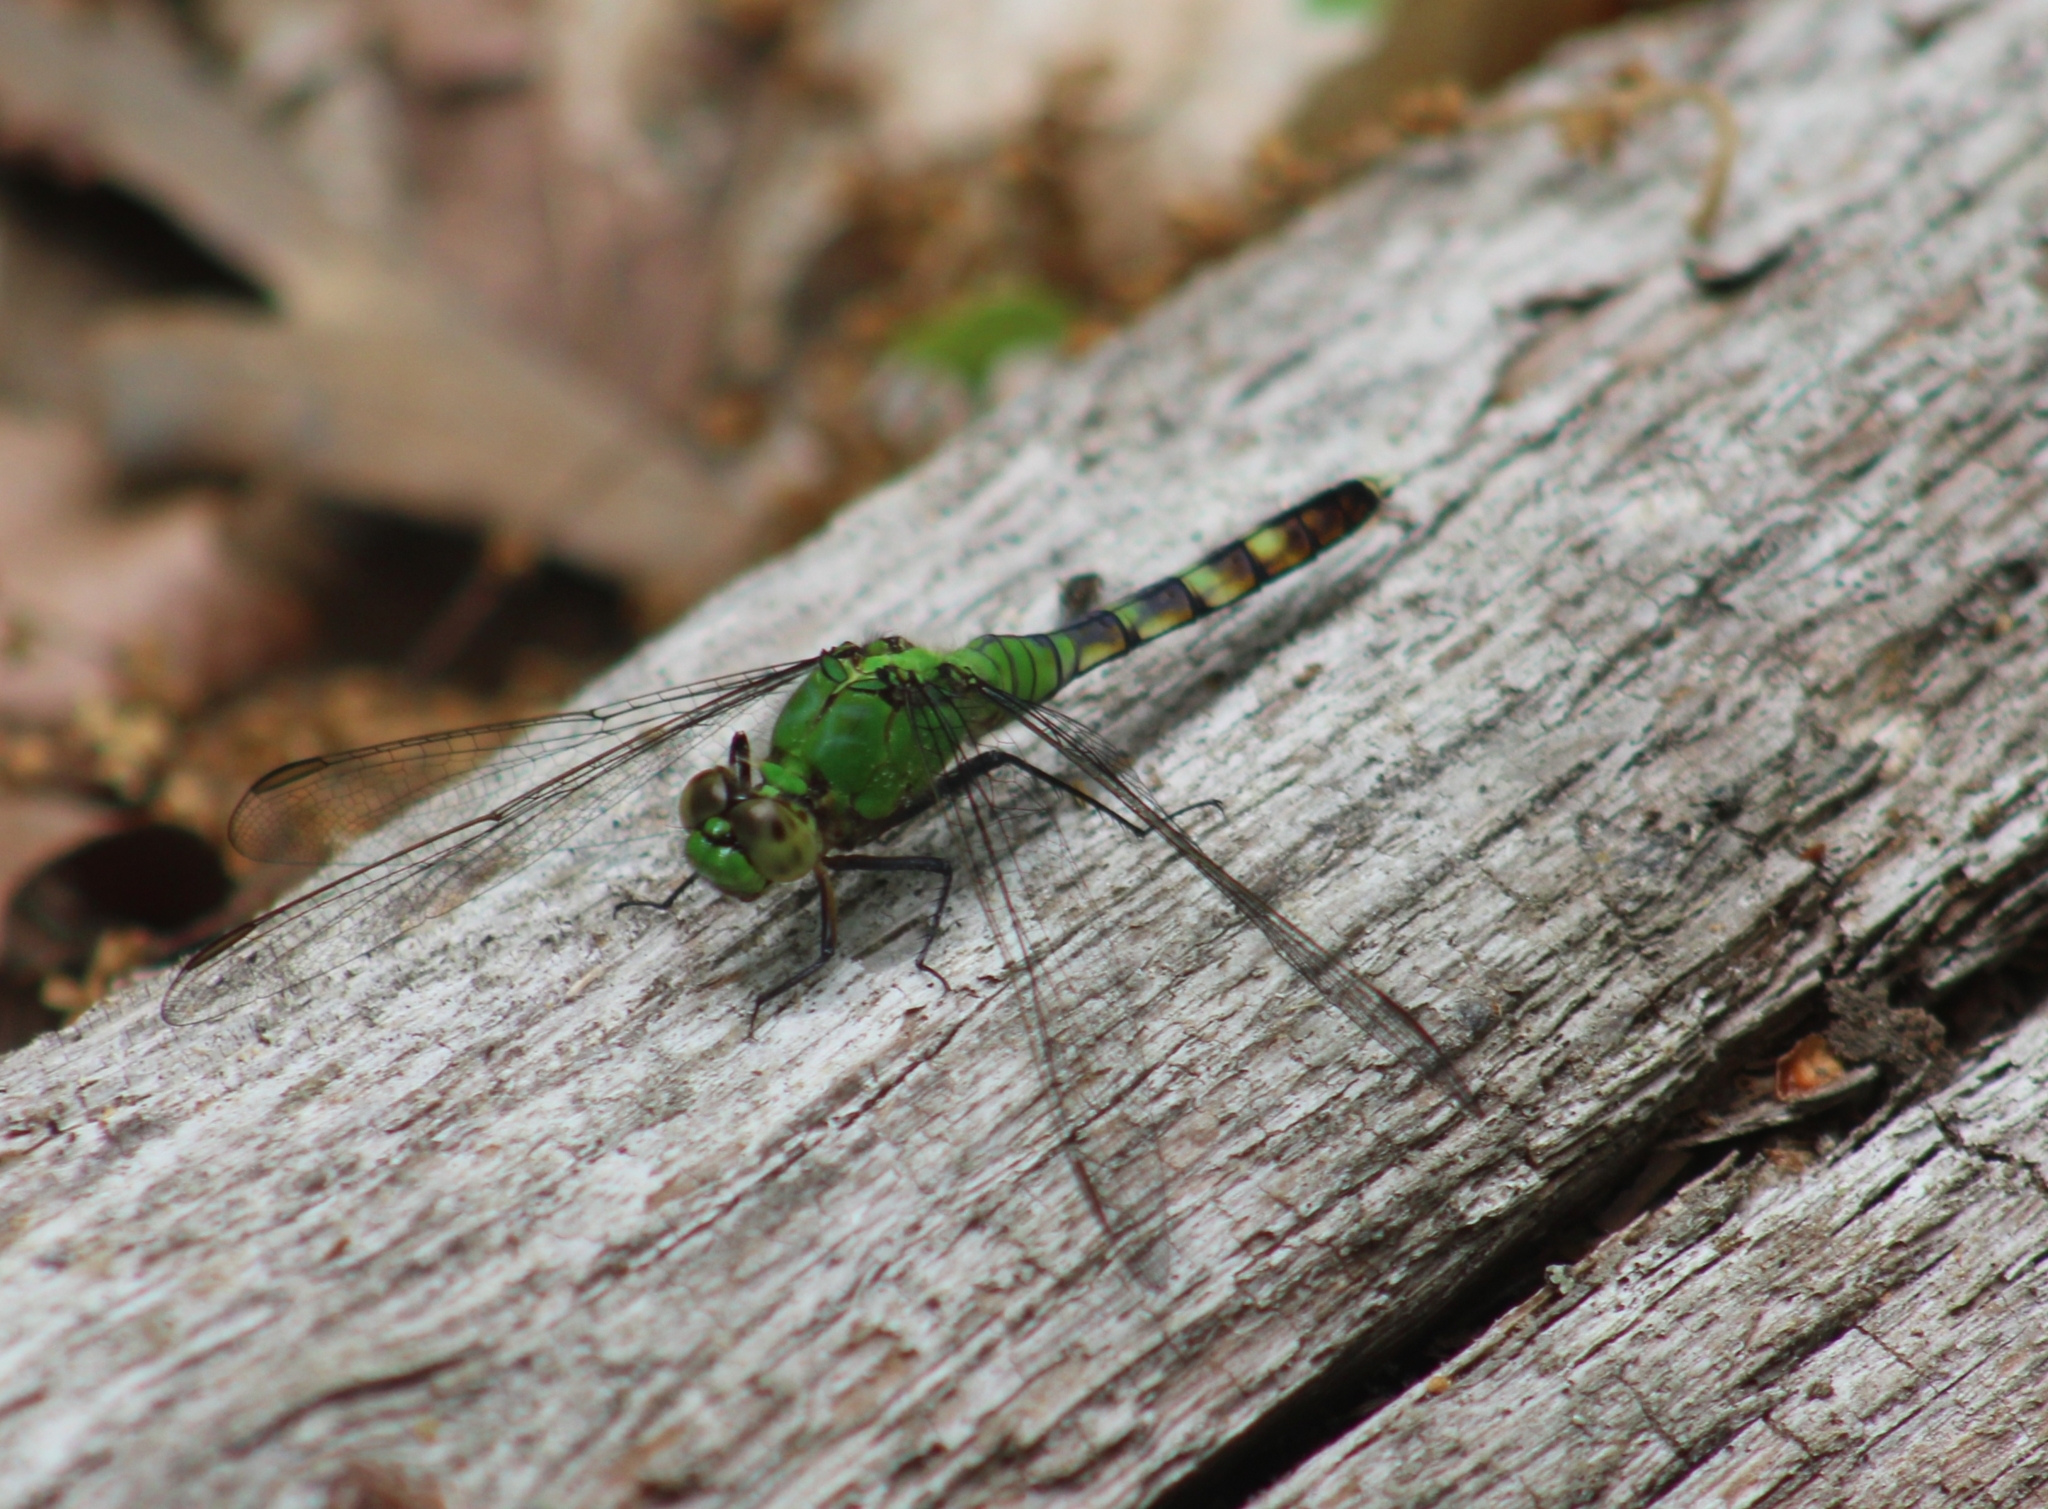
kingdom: Animalia
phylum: Arthropoda
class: Insecta
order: Odonata
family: Libellulidae
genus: Erythemis
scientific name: Erythemis simplicicollis
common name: Eastern pondhawk
